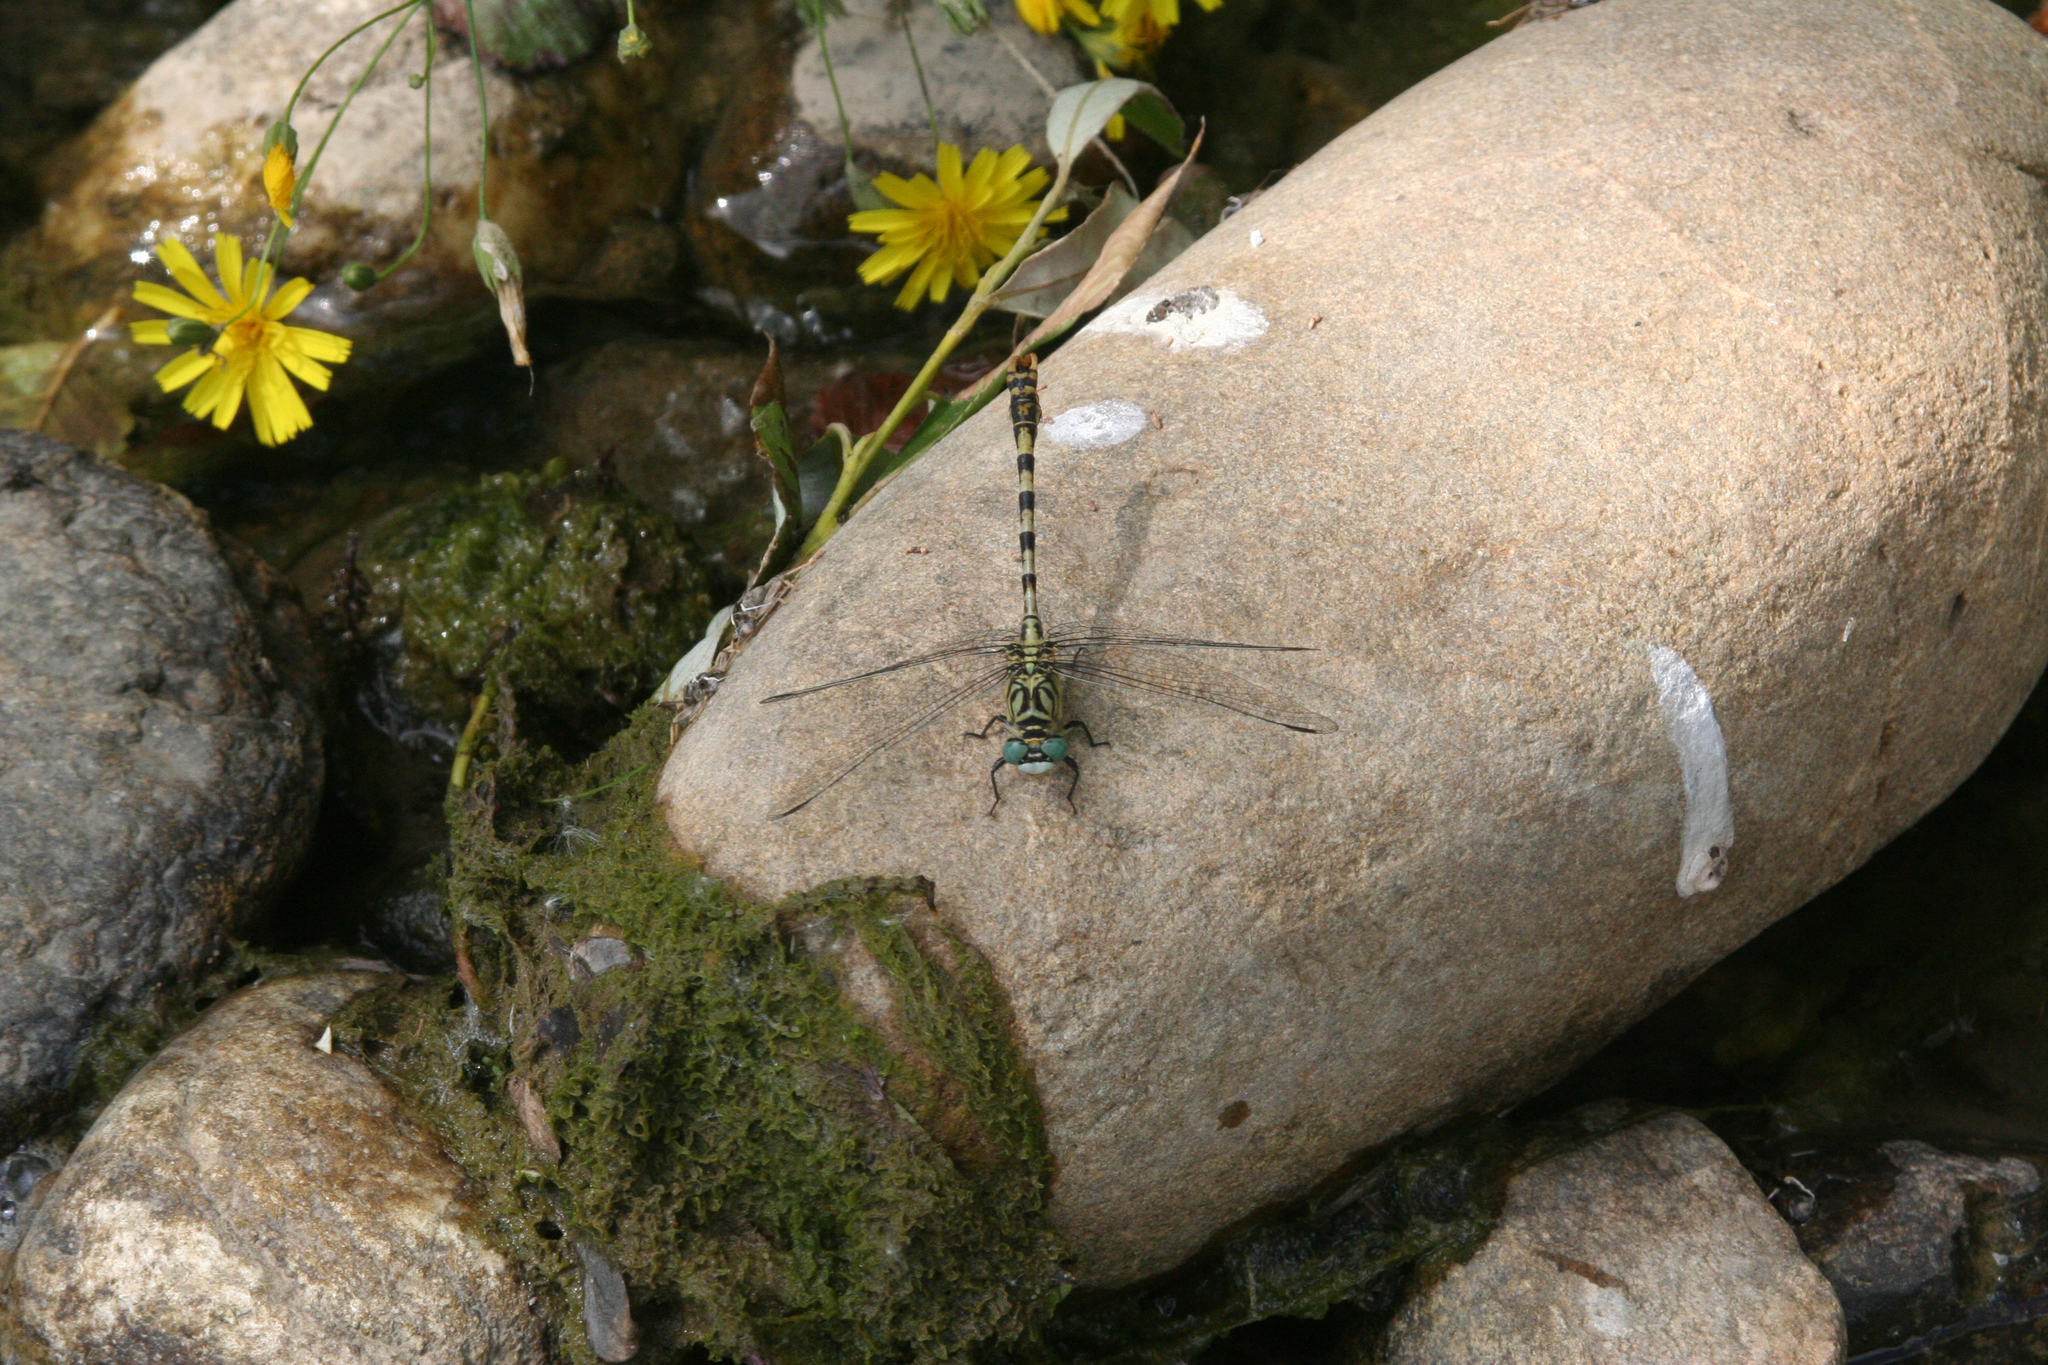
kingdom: Plantae
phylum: Tracheophyta
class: Magnoliopsida
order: Asterales
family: Asteraceae
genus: Lapsana
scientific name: Lapsana communis
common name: Nipplewort
